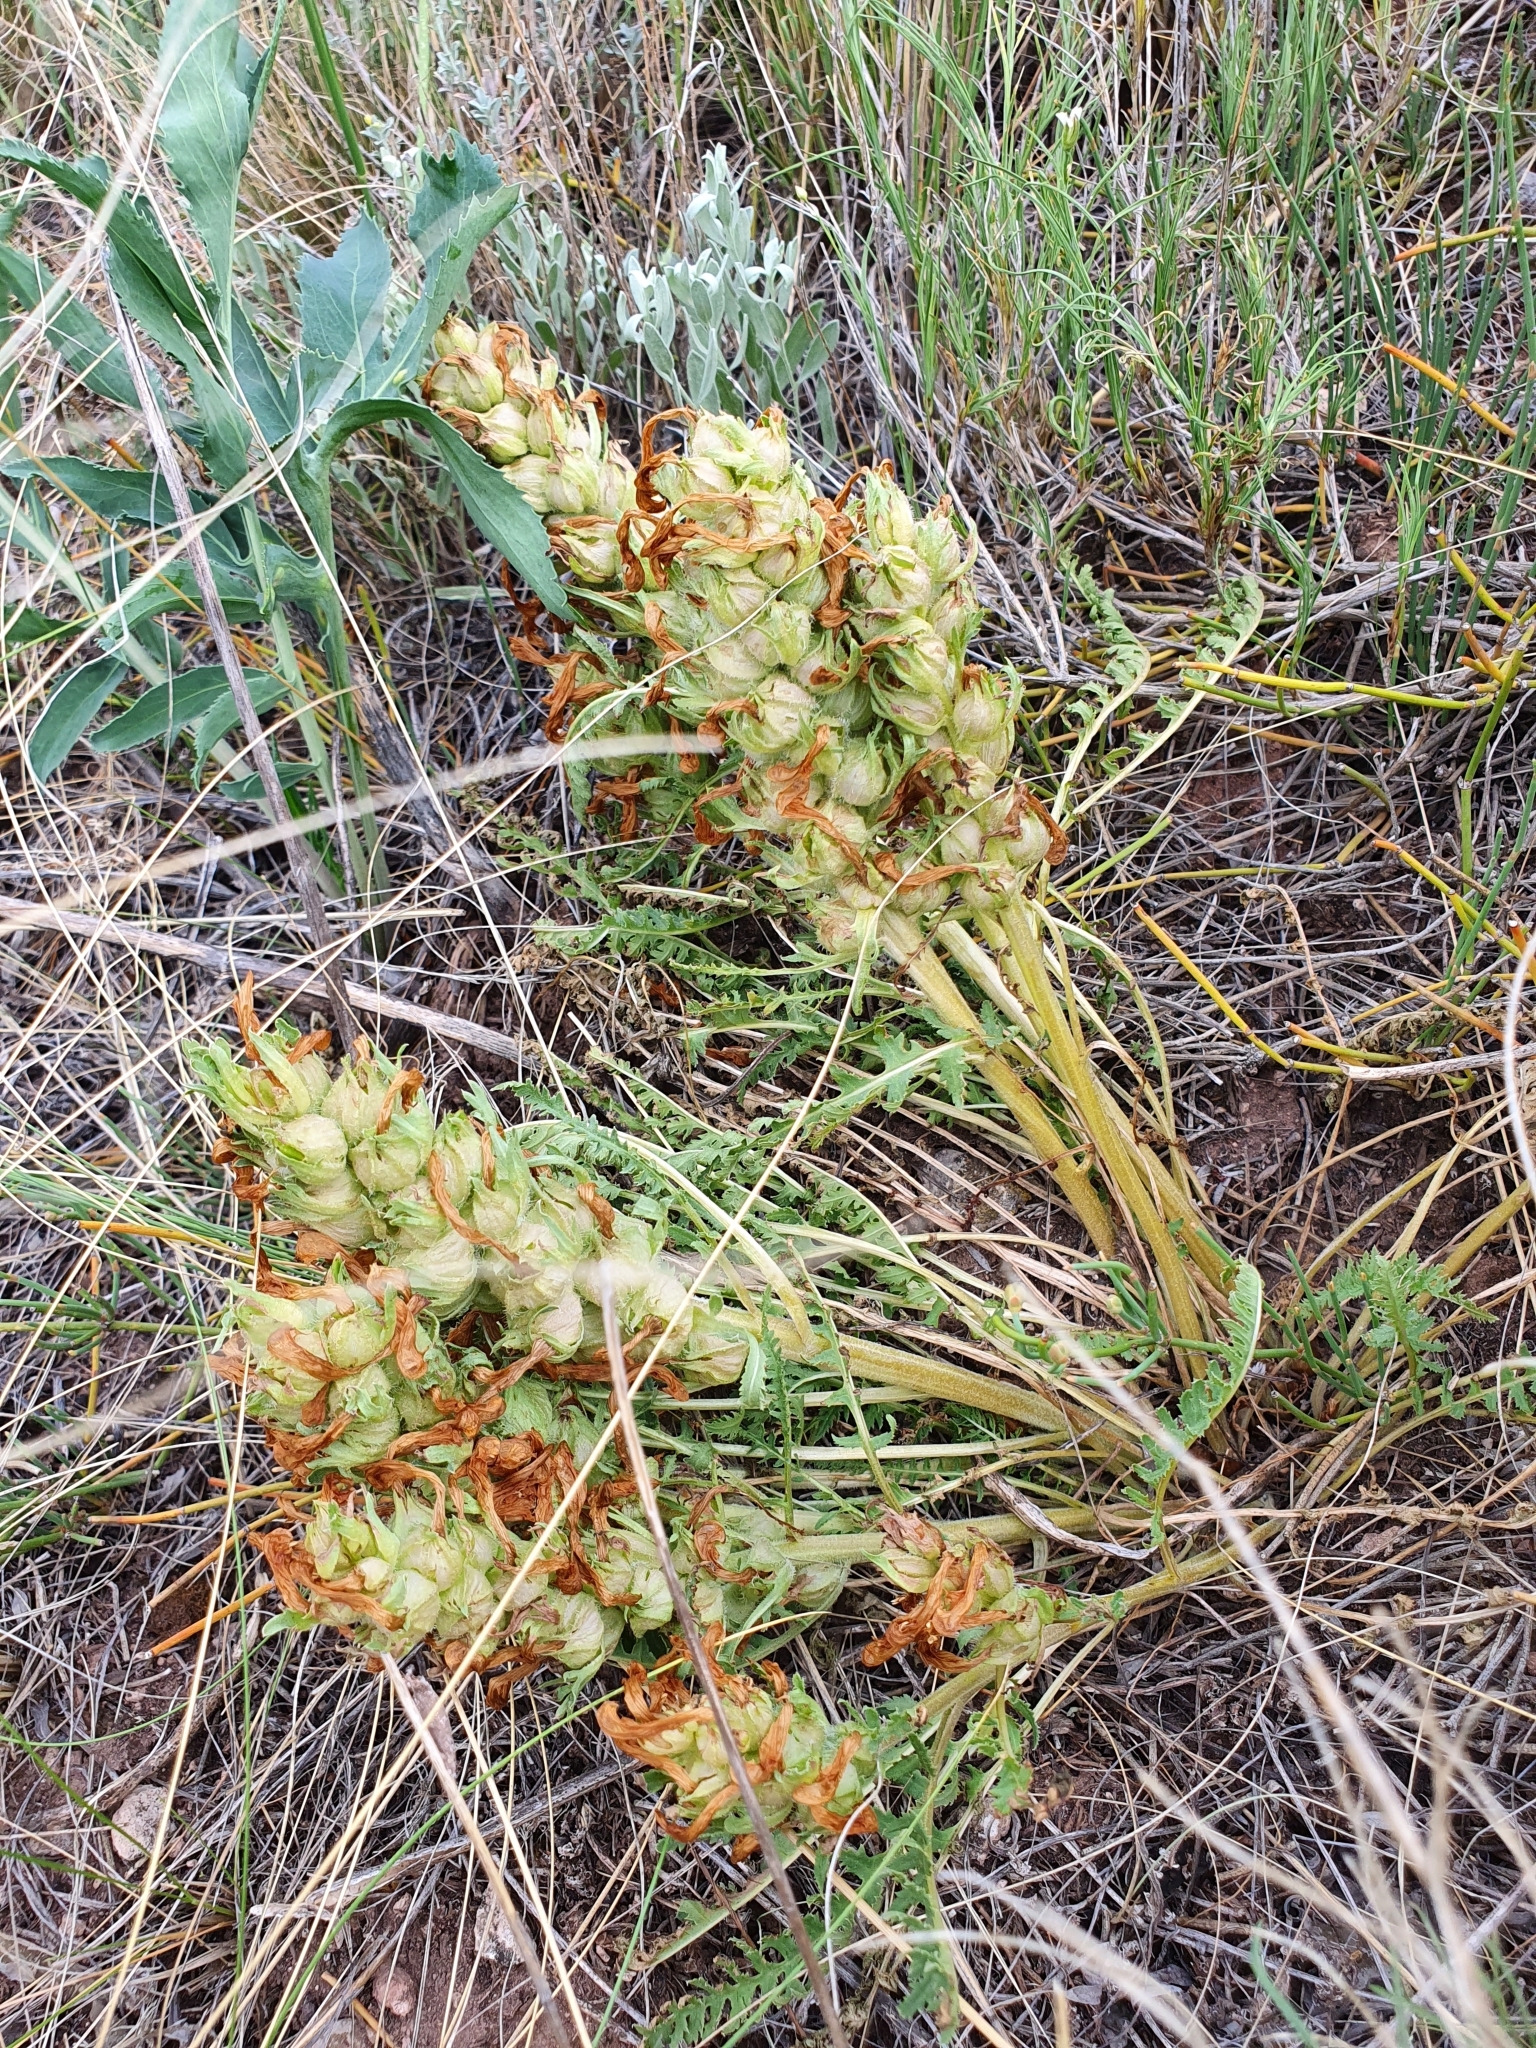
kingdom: Plantae
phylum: Tracheophyta
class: Magnoliopsida
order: Lamiales
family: Orobanchaceae
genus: Pedicularis
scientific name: Pedicularis physocalyx
